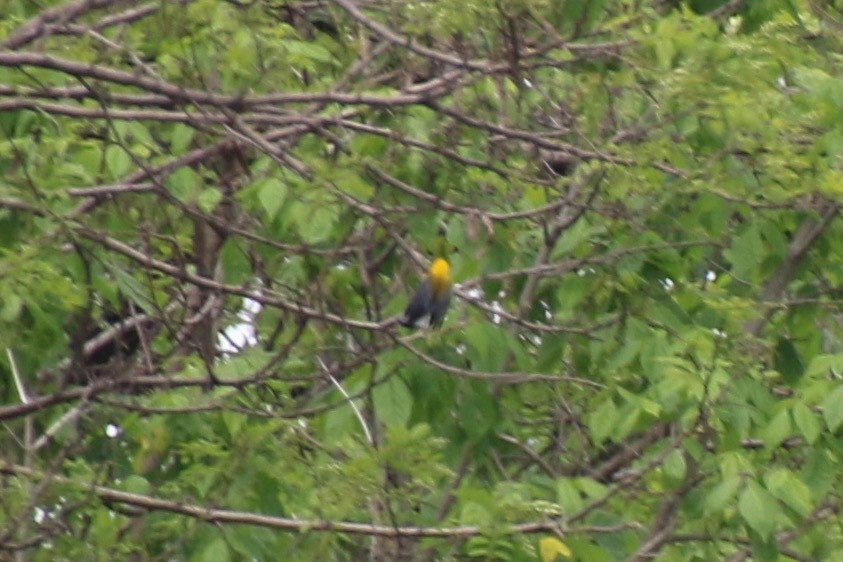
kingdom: Animalia
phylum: Chordata
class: Aves
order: Passeriformes
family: Parulidae
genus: Protonotaria
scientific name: Protonotaria citrea
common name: Prothonotary warbler
